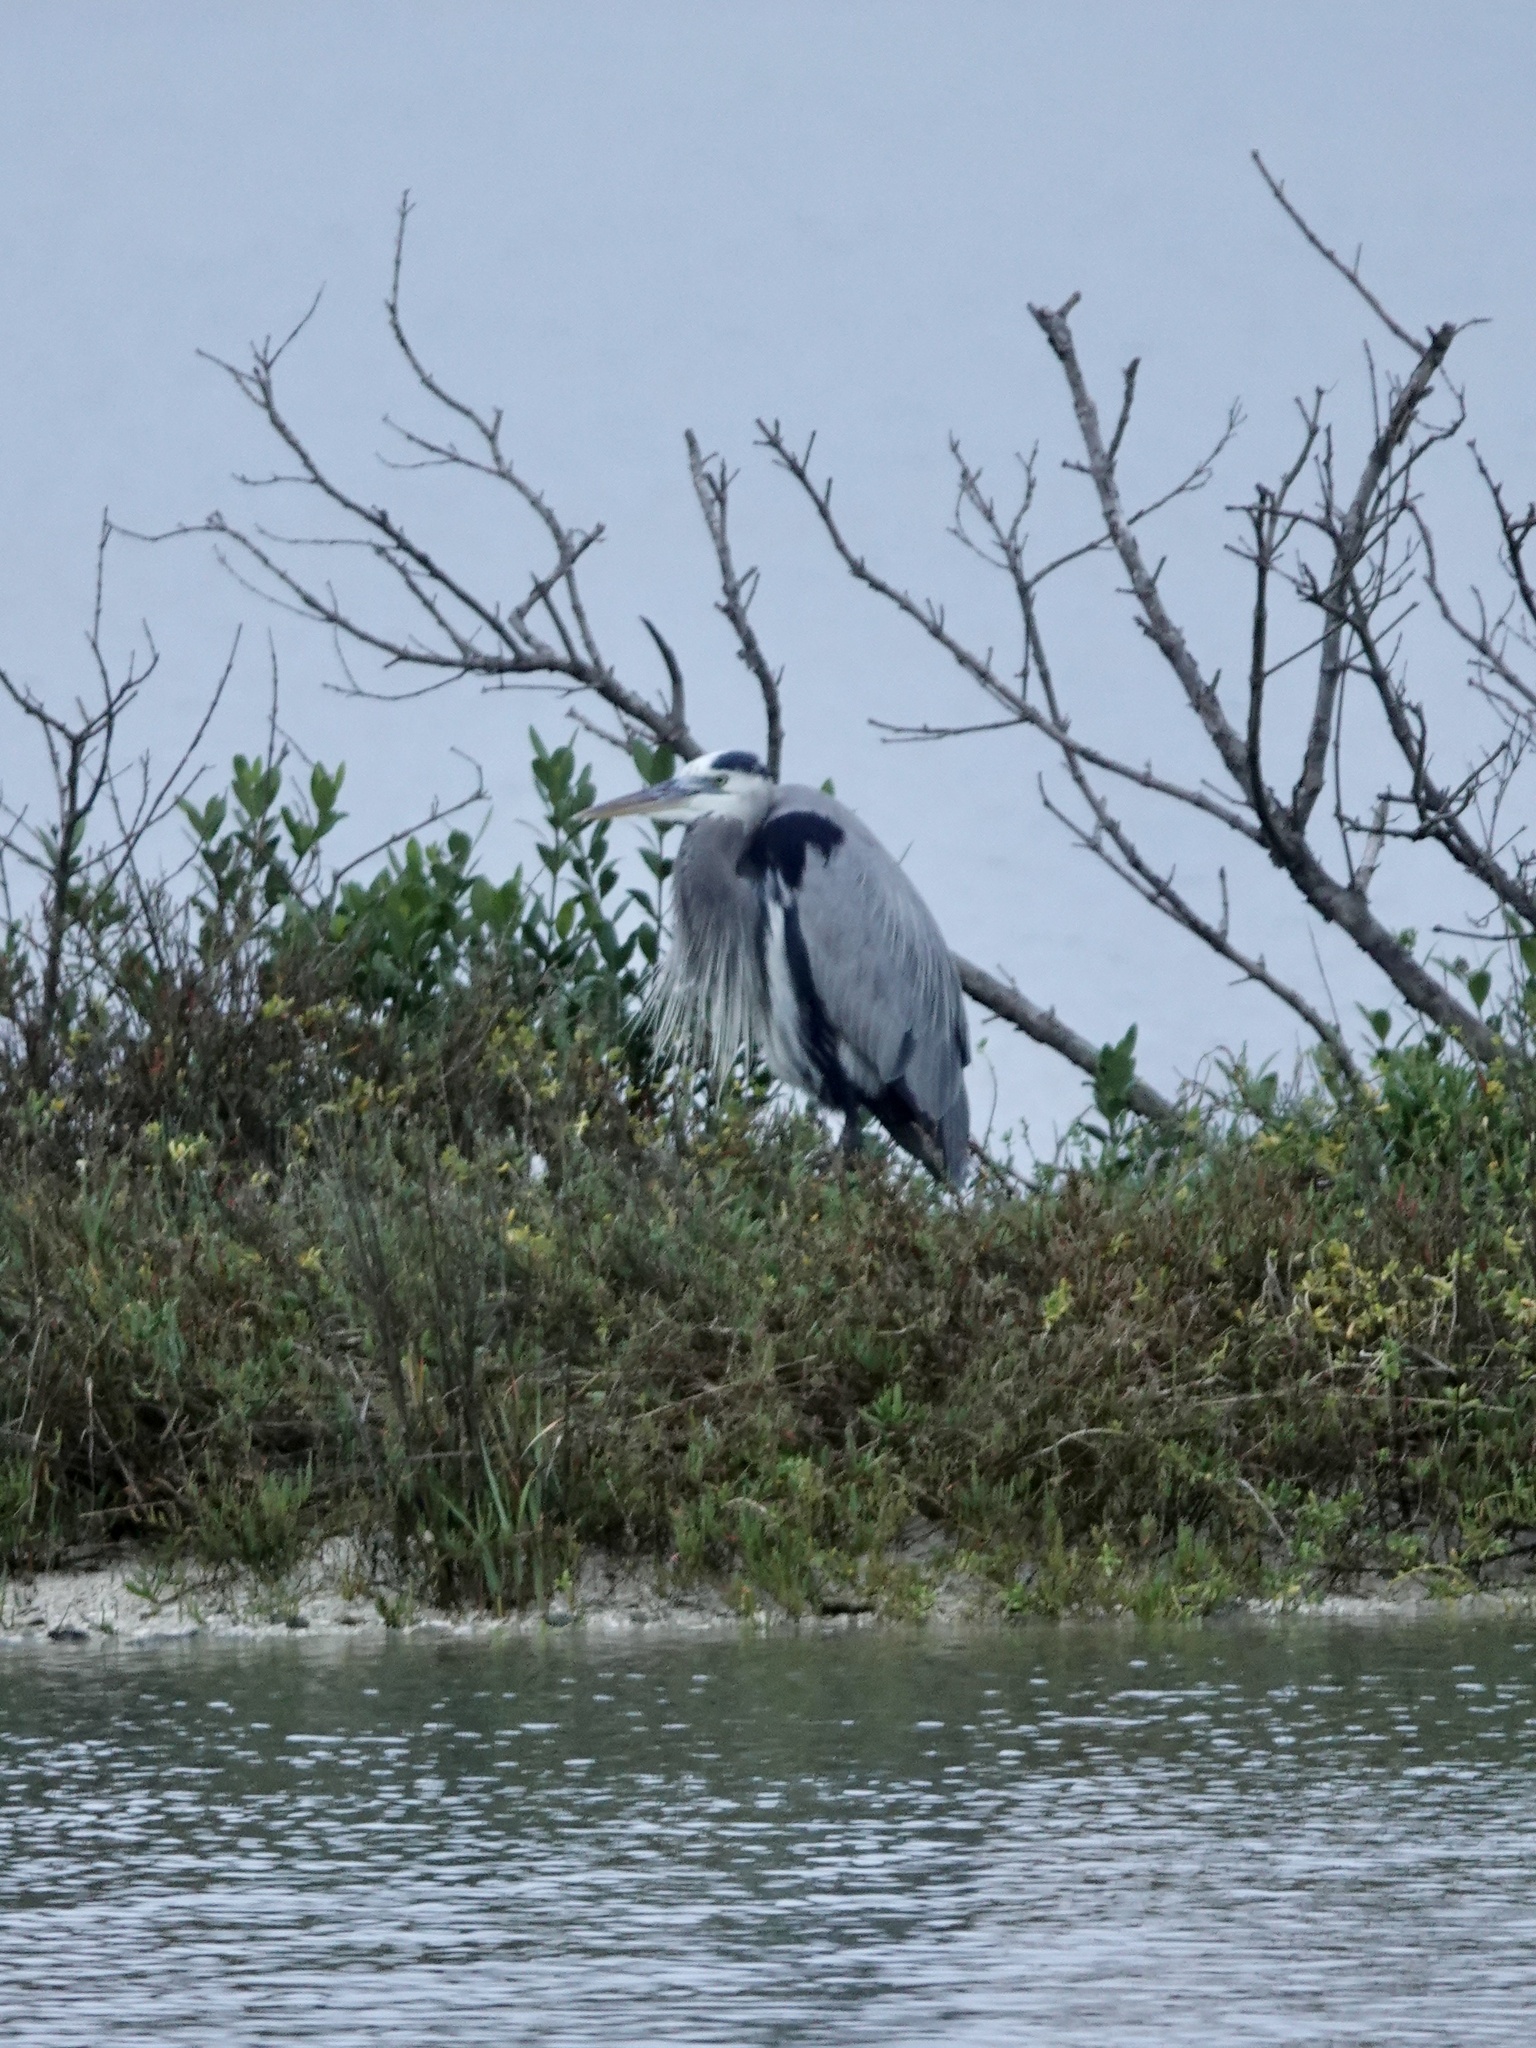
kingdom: Animalia
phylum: Chordata
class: Aves
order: Pelecaniformes
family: Ardeidae
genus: Ardea
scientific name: Ardea herodias
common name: Great blue heron
